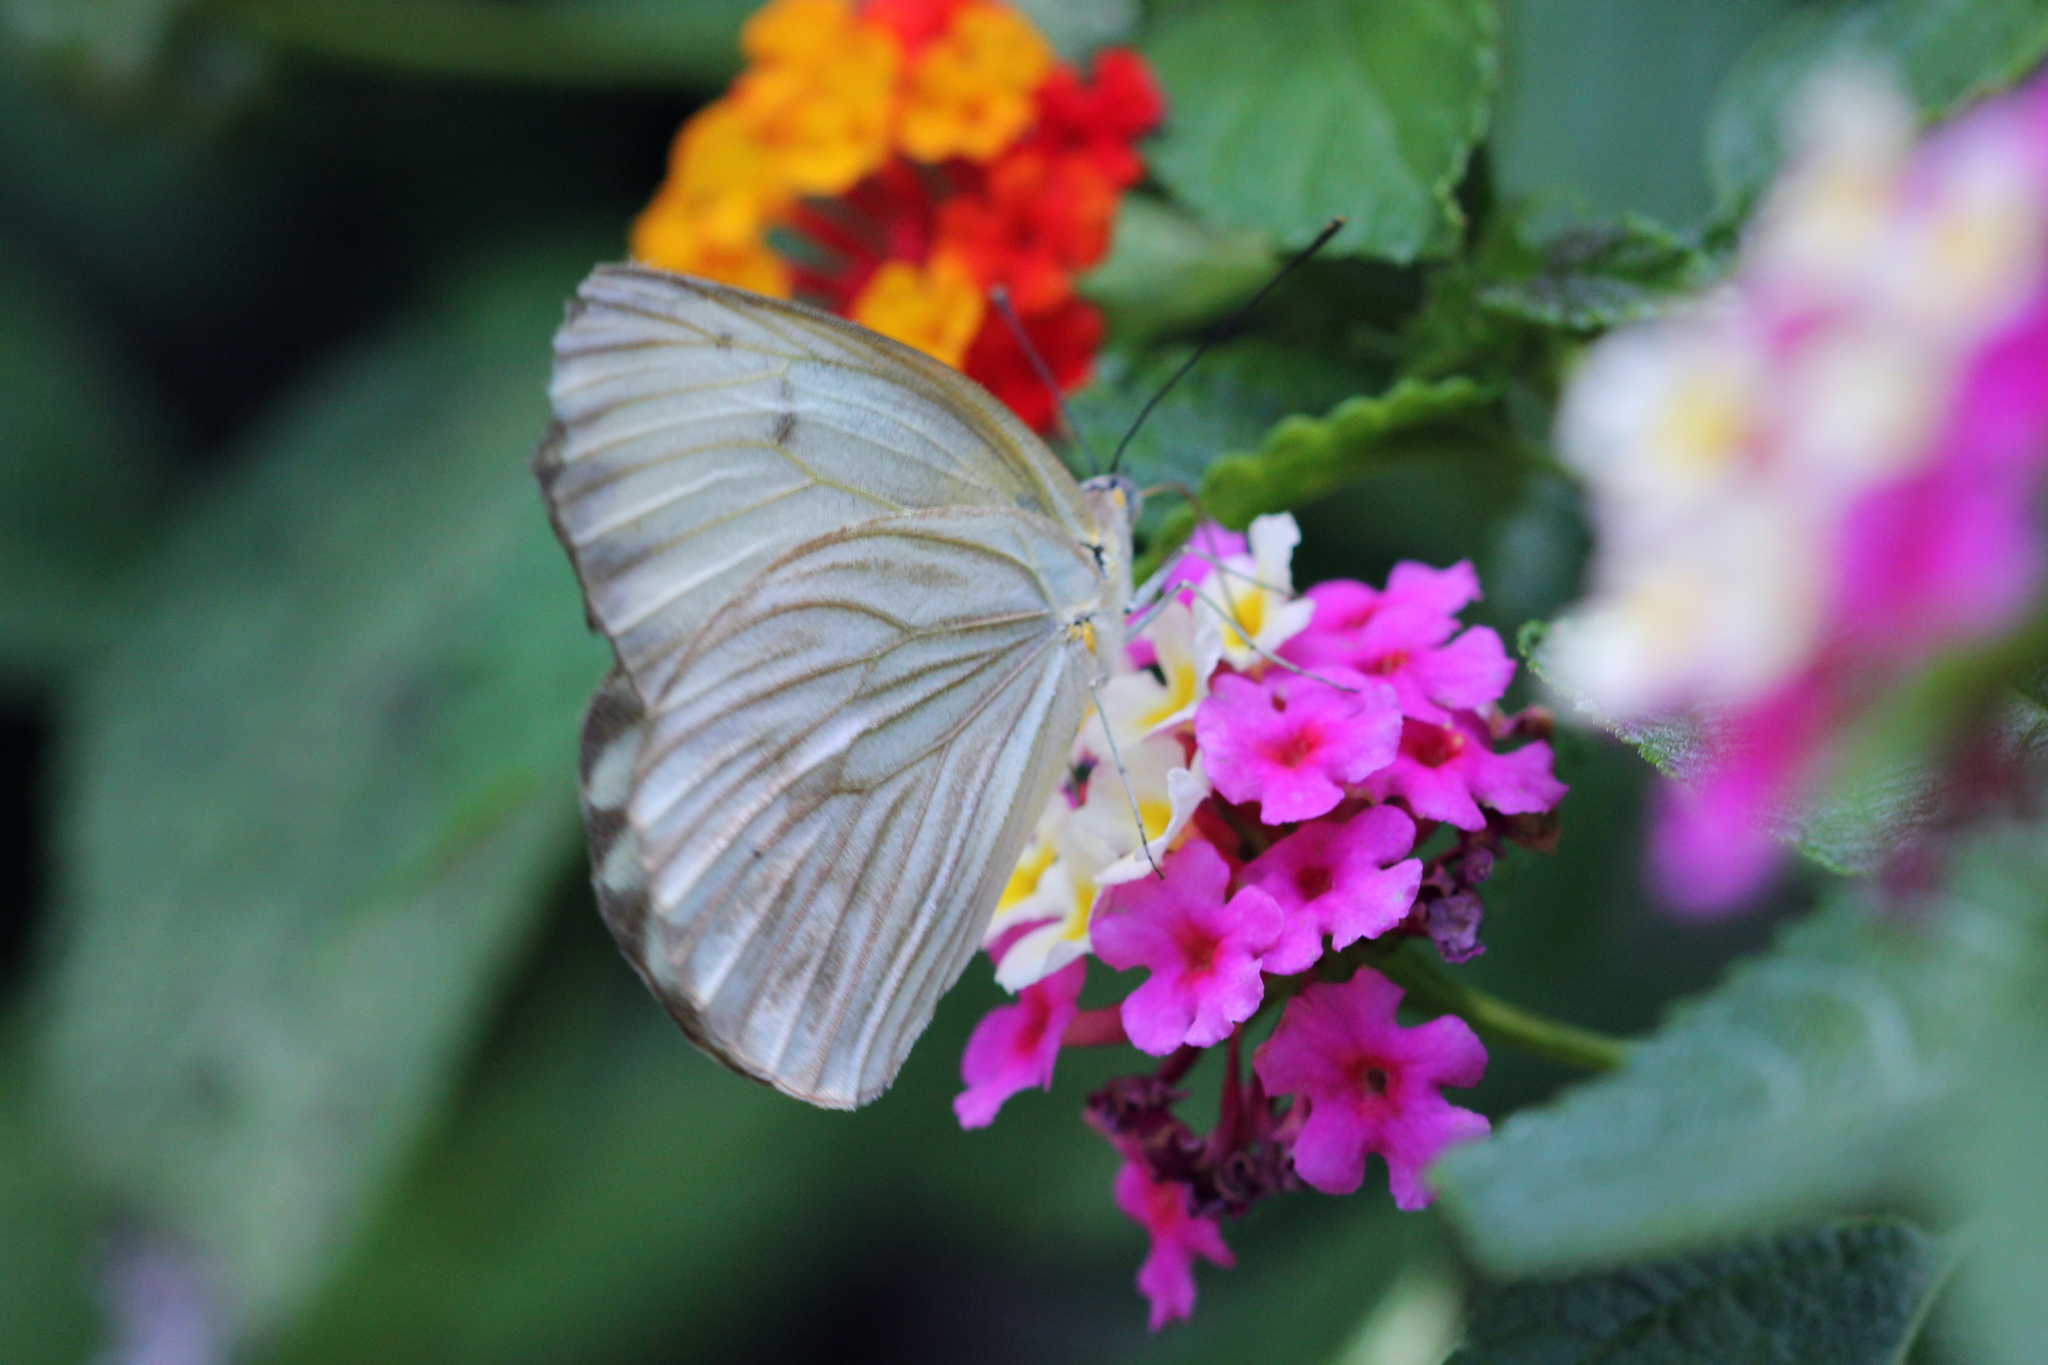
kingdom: Animalia
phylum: Arthropoda
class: Insecta
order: Lepidoptera
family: Pieridae
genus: Ascia
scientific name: Ascia monuste
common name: Great southern white
